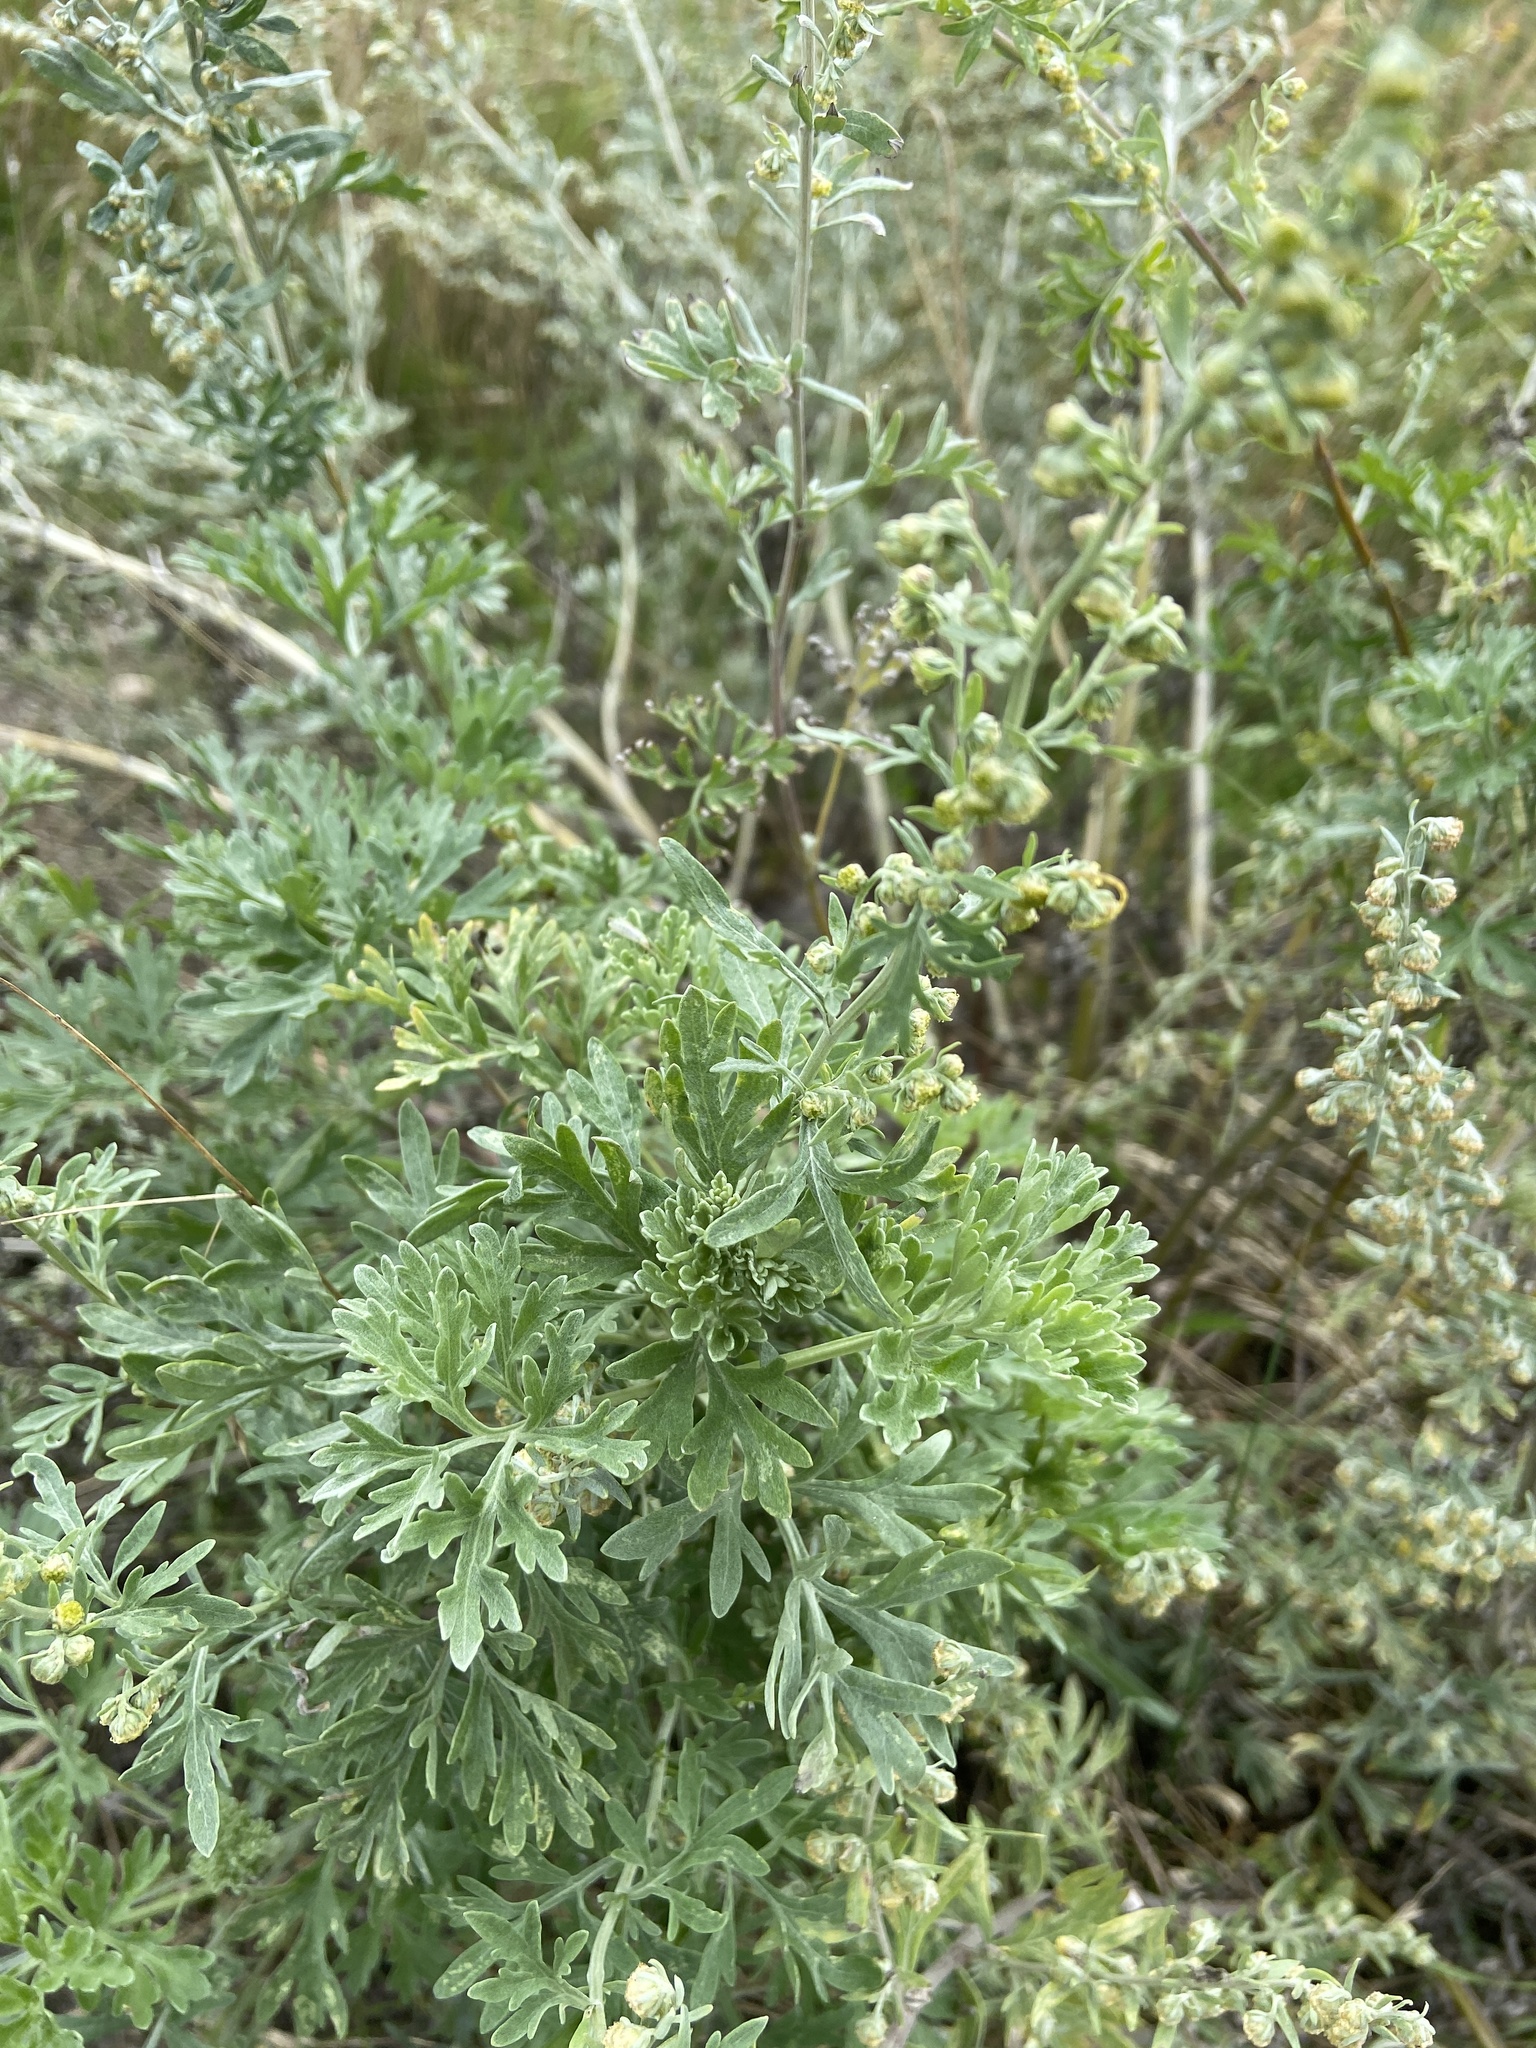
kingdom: Plantae
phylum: Tracheophyta
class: Magnoliopsida
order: Asterales
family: Asteraceae
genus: Artemisia
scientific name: Artemisia absinthium
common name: Wormwood
